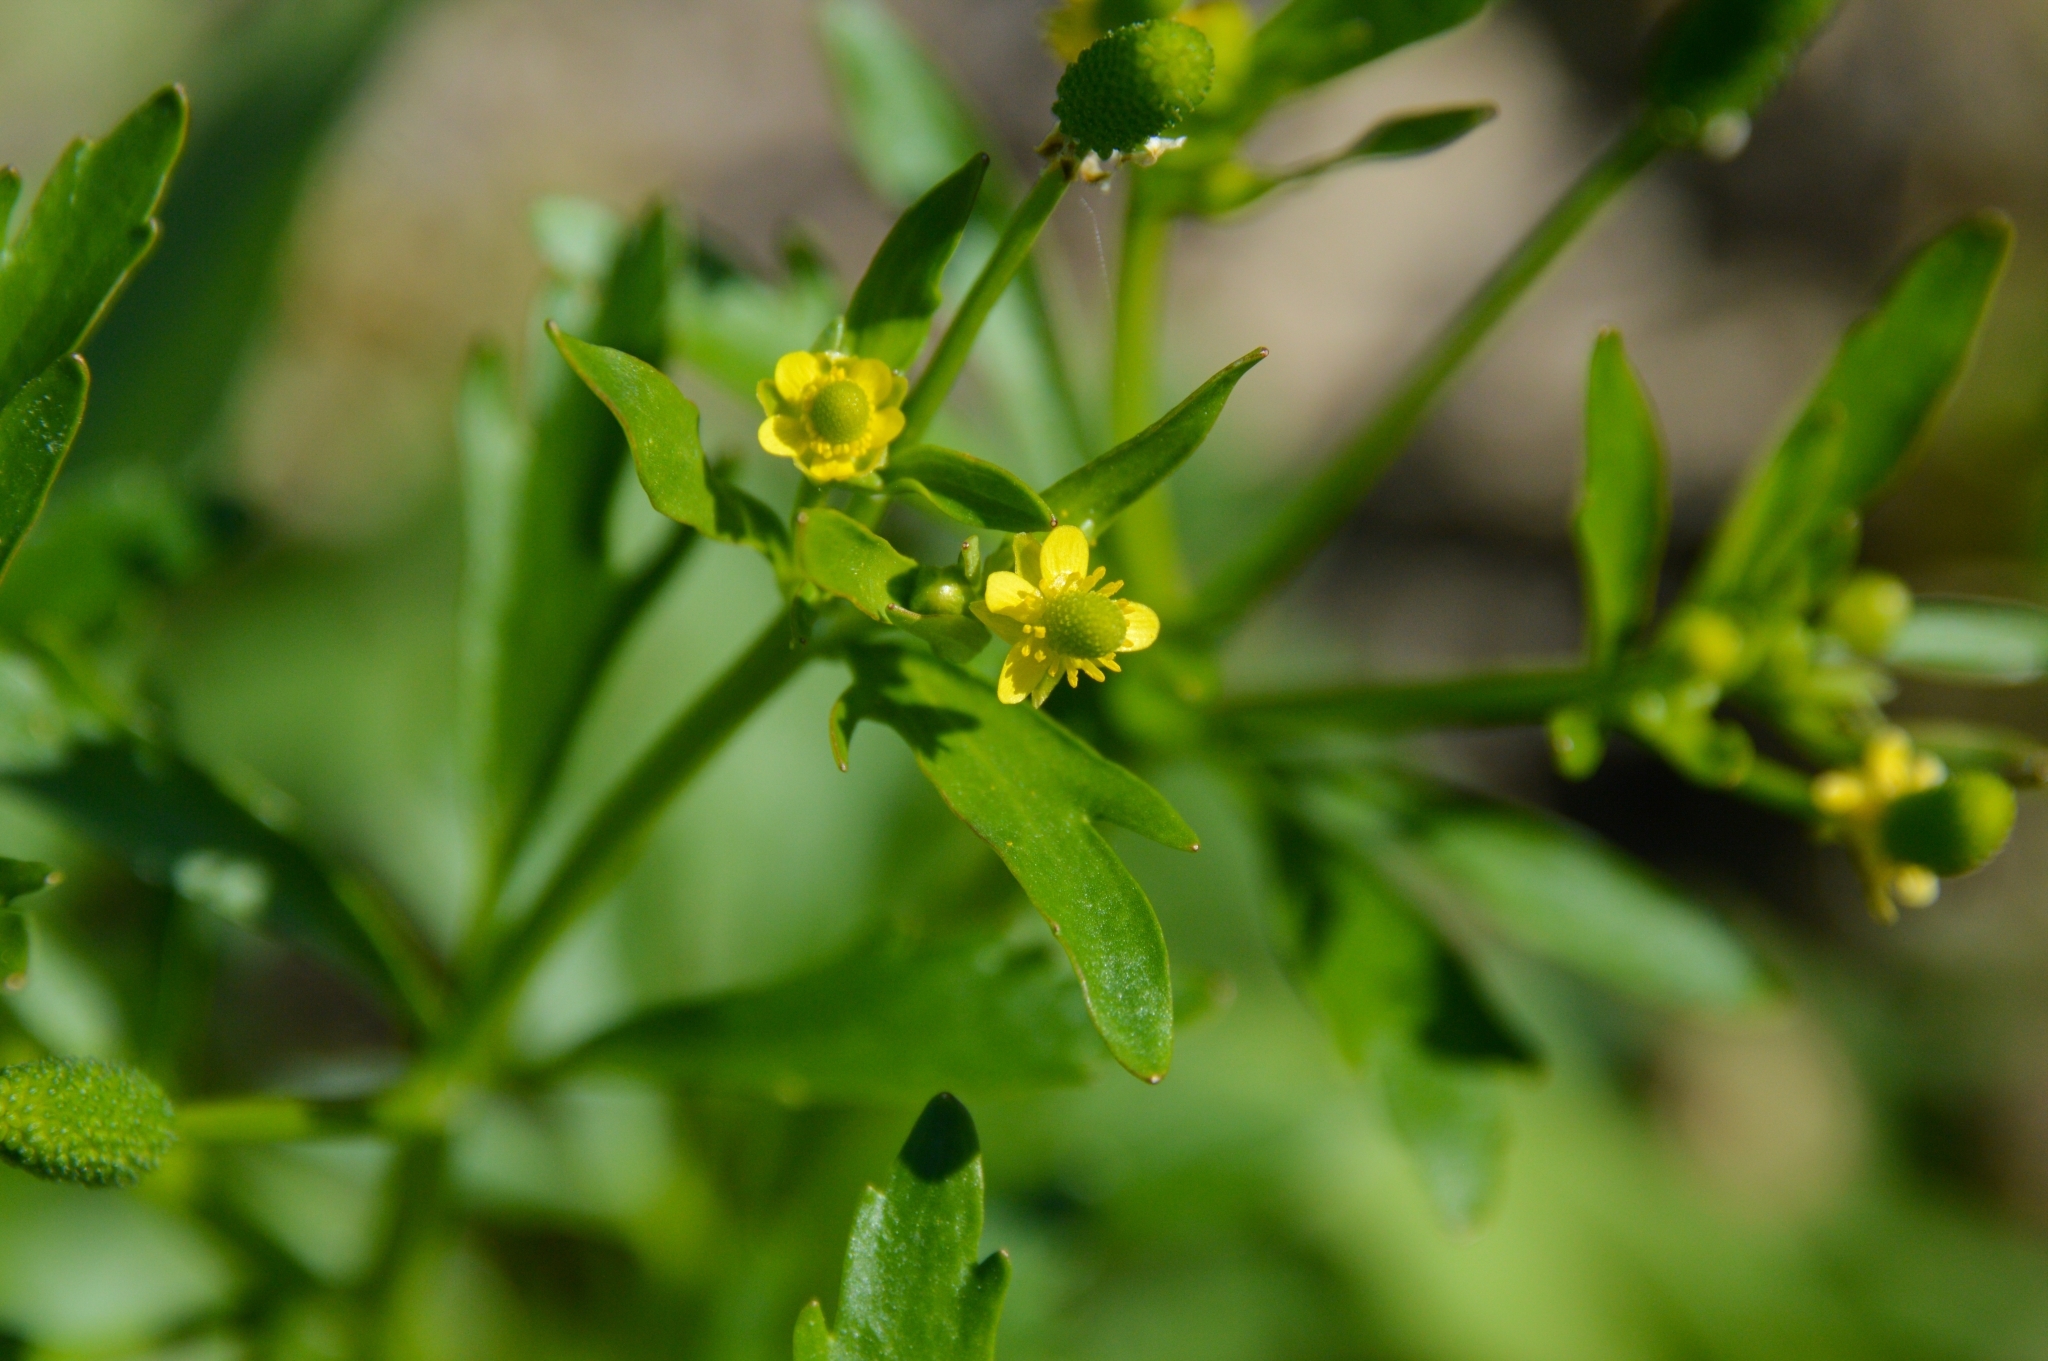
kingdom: Plantae
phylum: Tracheophyta
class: Magnoliopsida
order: Ranunculales
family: Ranunculaceae
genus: Ranunculus
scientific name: Ranunculus sceleratus
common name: Celery-leaved buttercup
